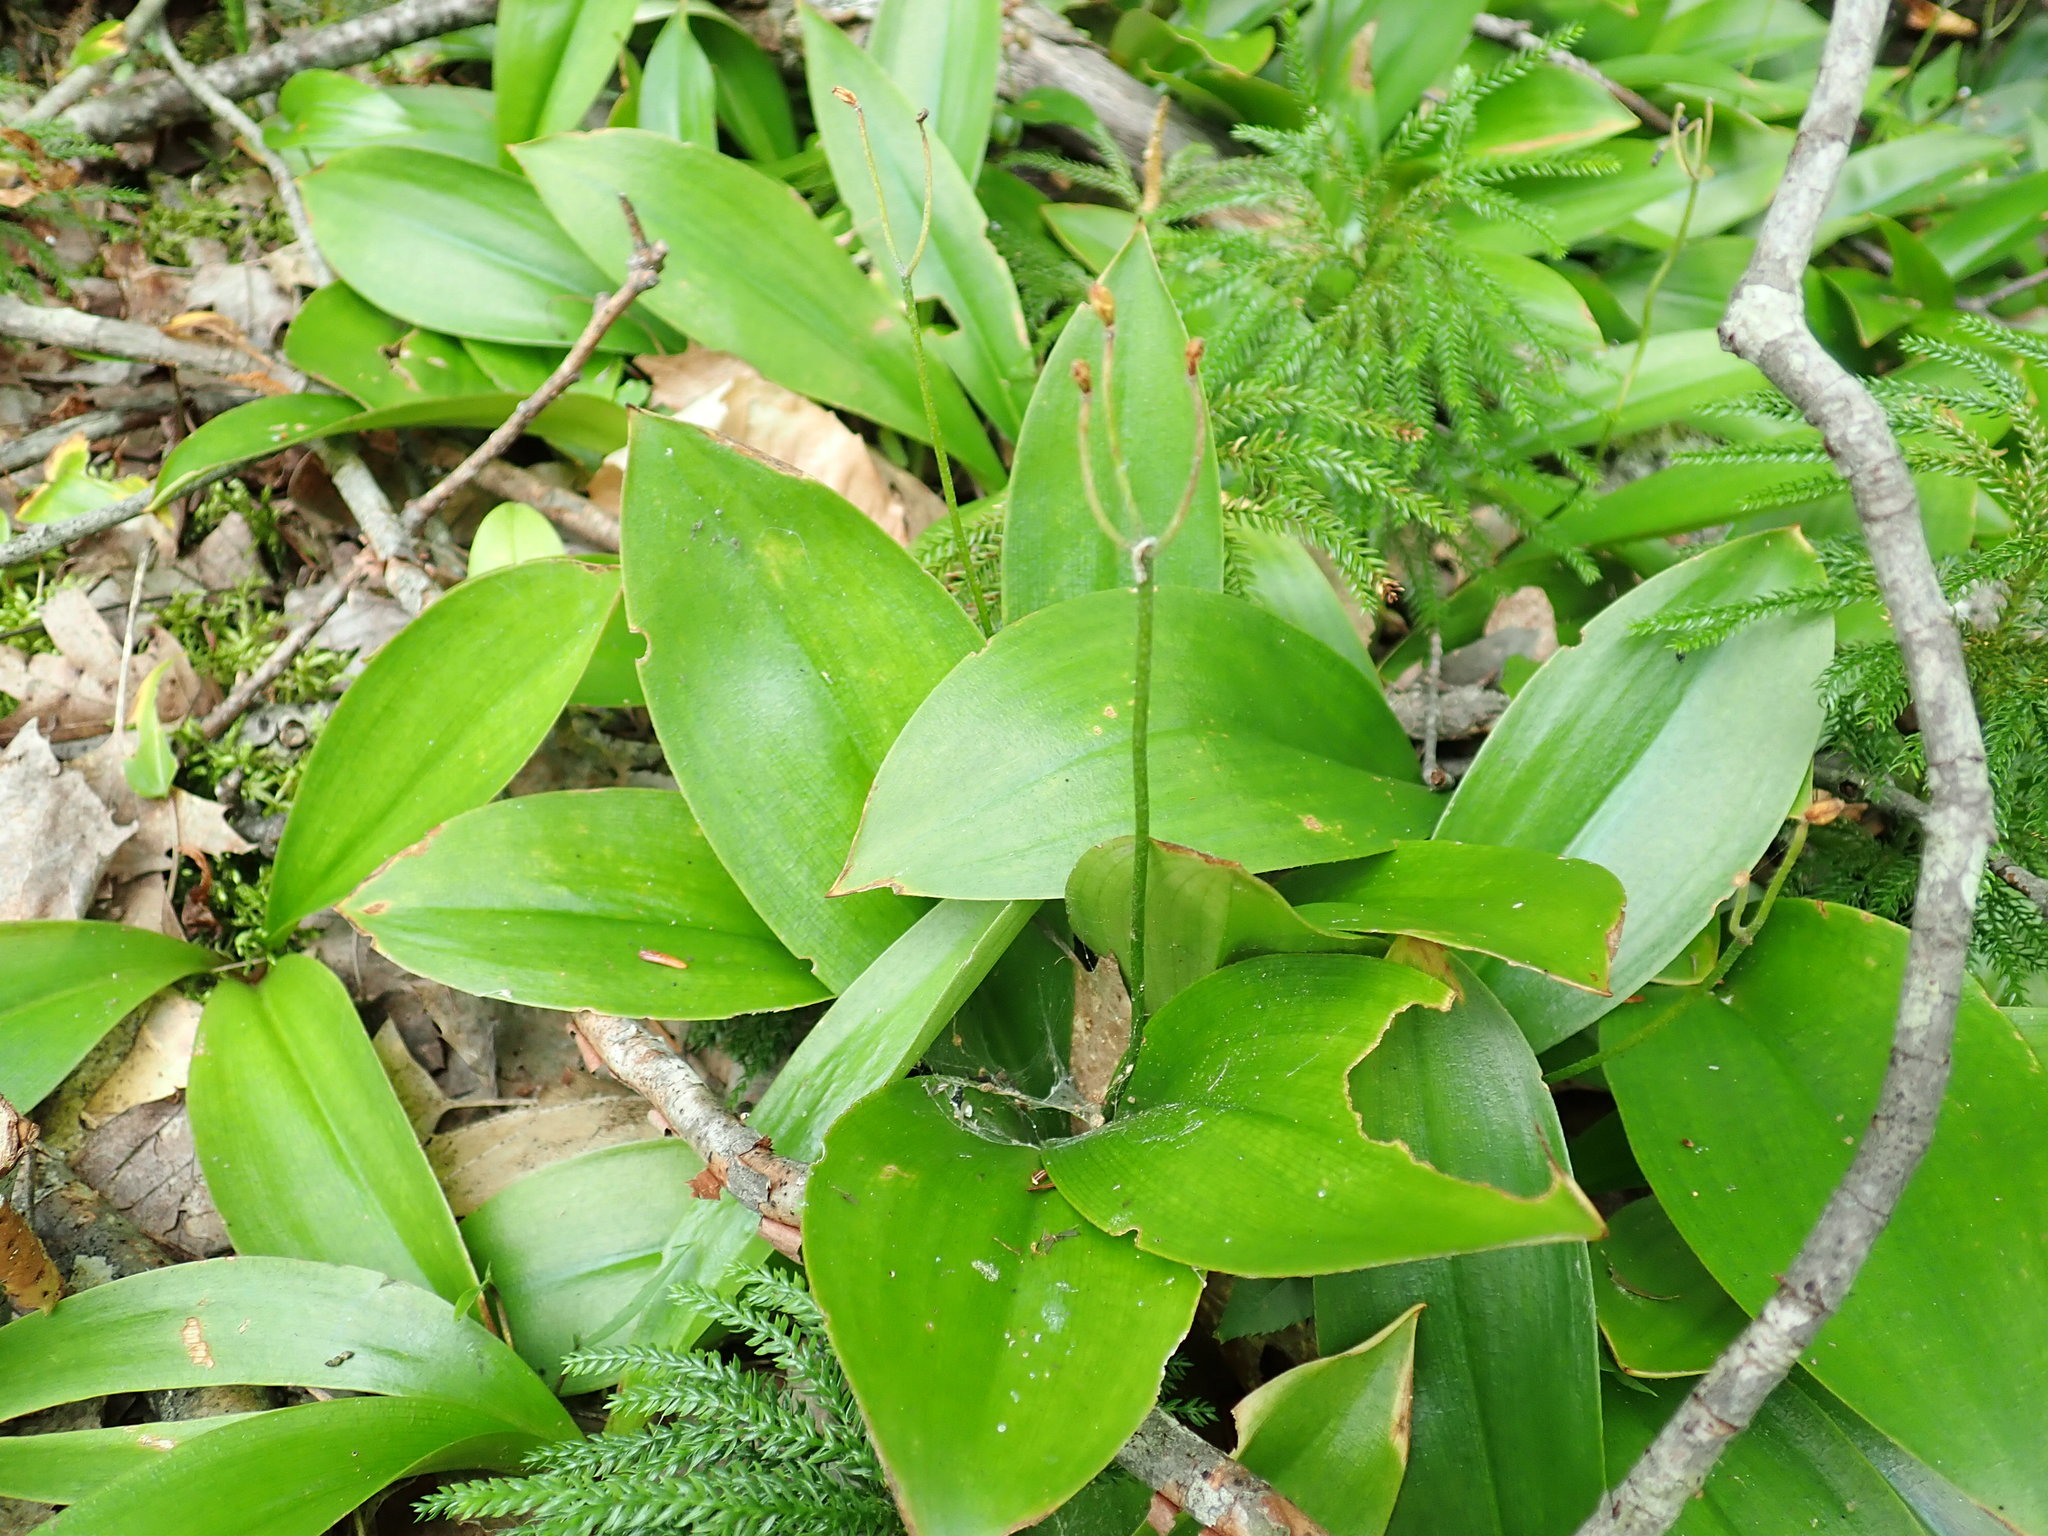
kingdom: Plantae
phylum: Tracheophyta
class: Liliopsida
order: Liliales
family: Liliaceae
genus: Clintonia
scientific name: Clintonia borealis
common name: Yellow clintonia
